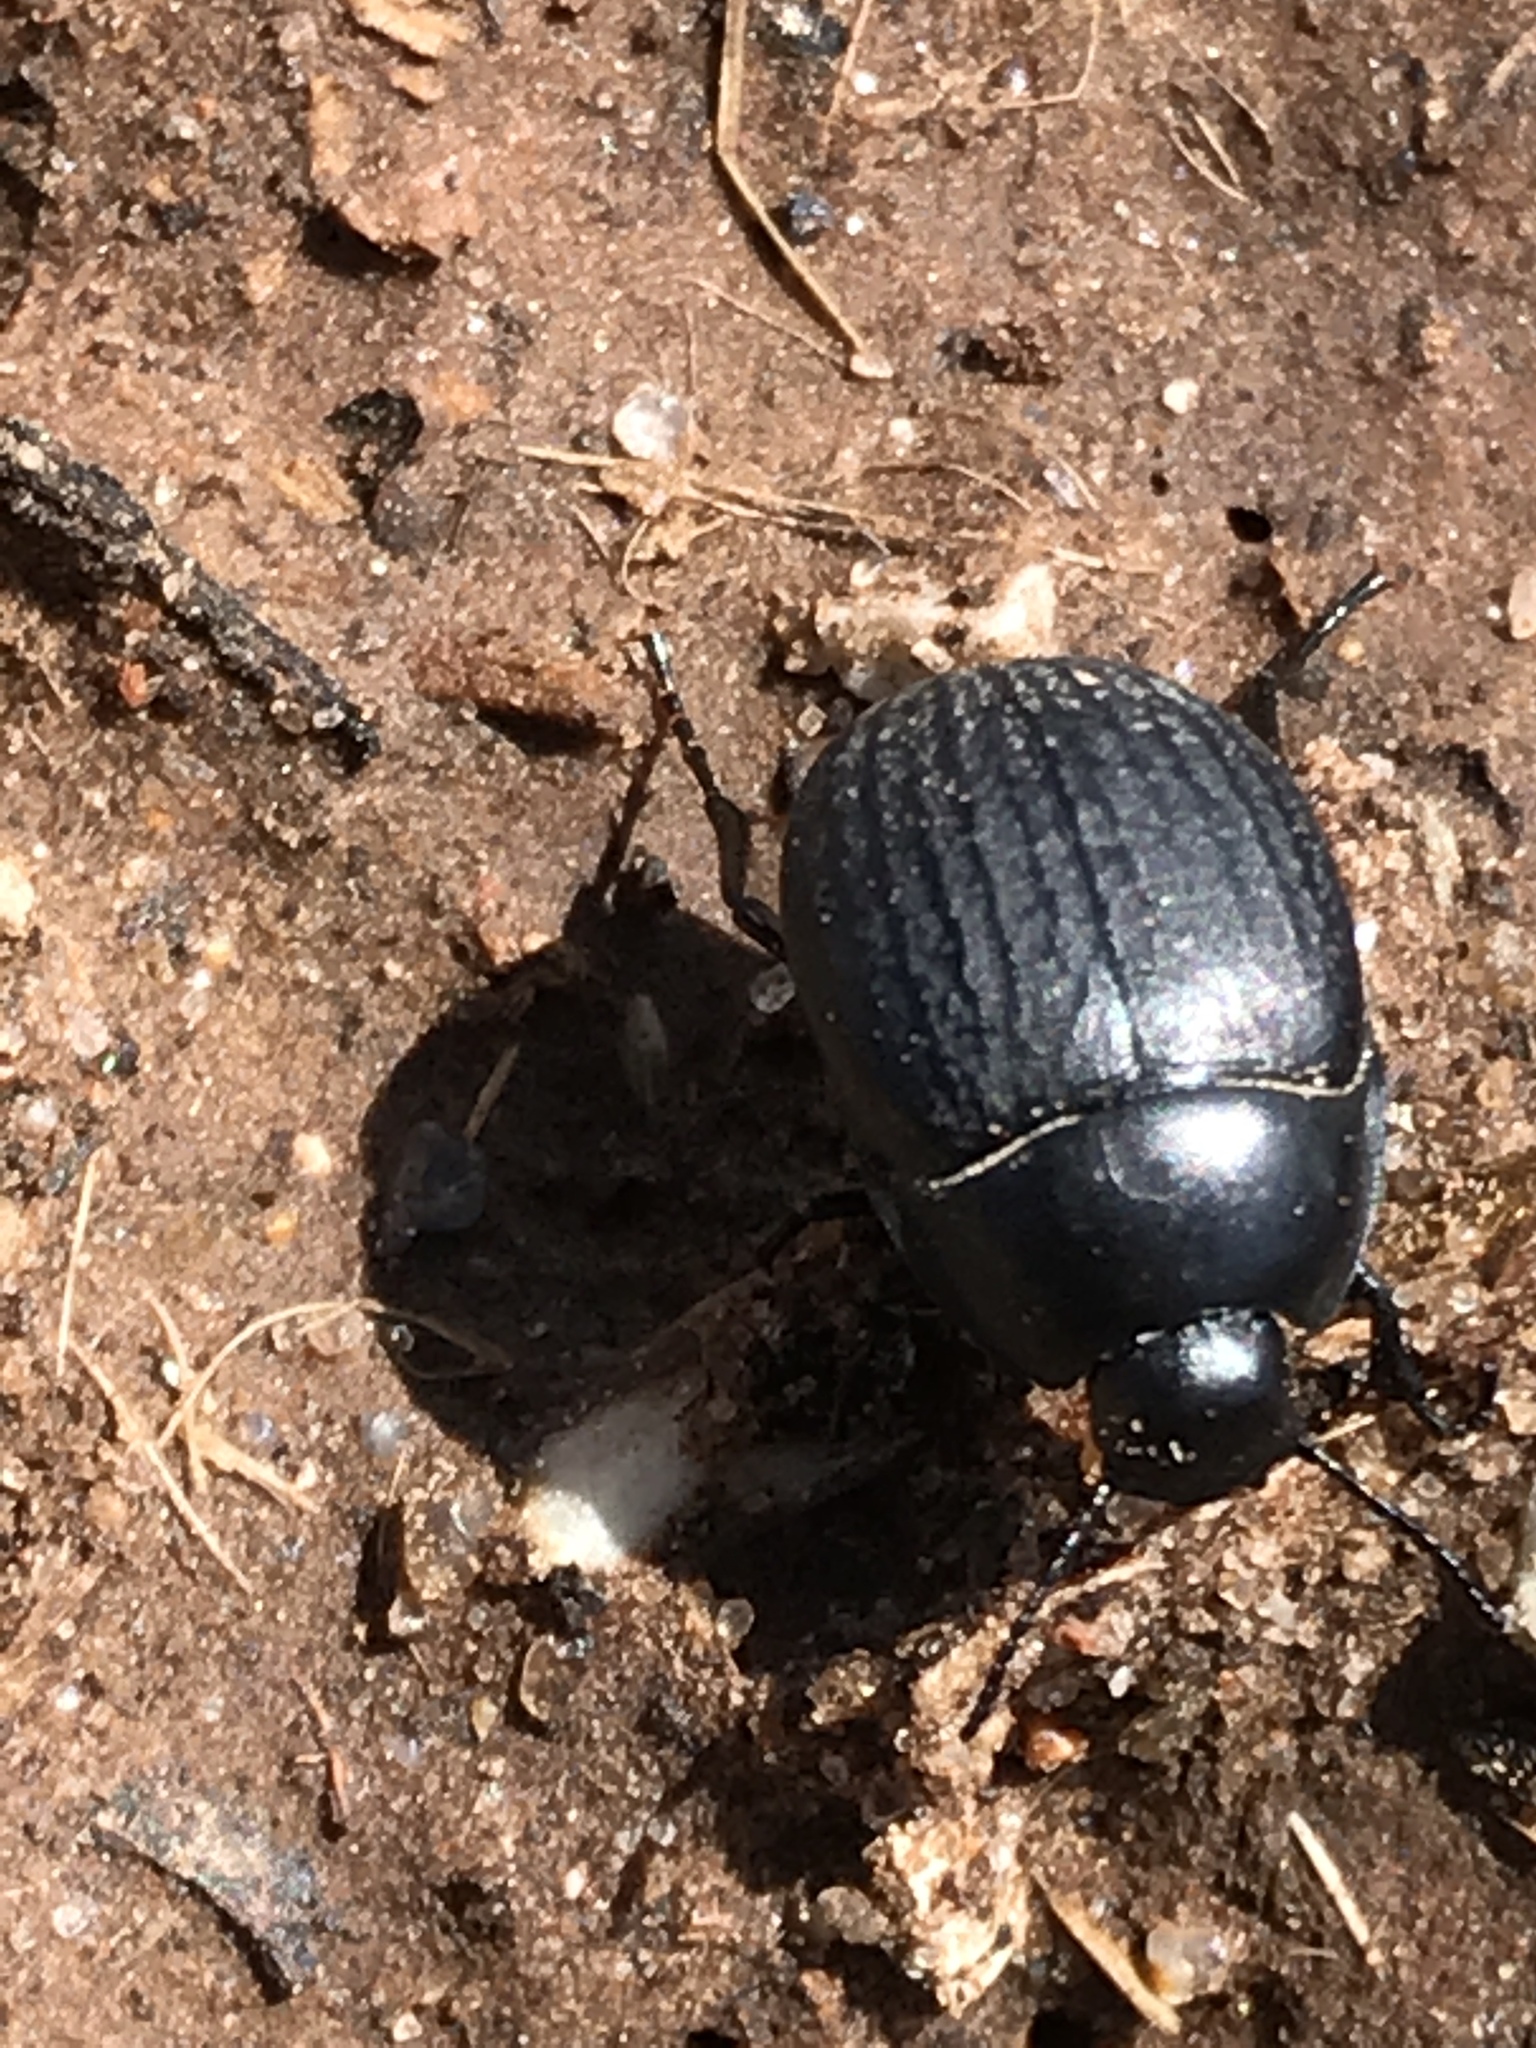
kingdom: Animalia
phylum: Arthropoda
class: Insecta
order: Coleoptera
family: Tenebrionidae
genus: Eusattus
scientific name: Eusattus reticulatus
